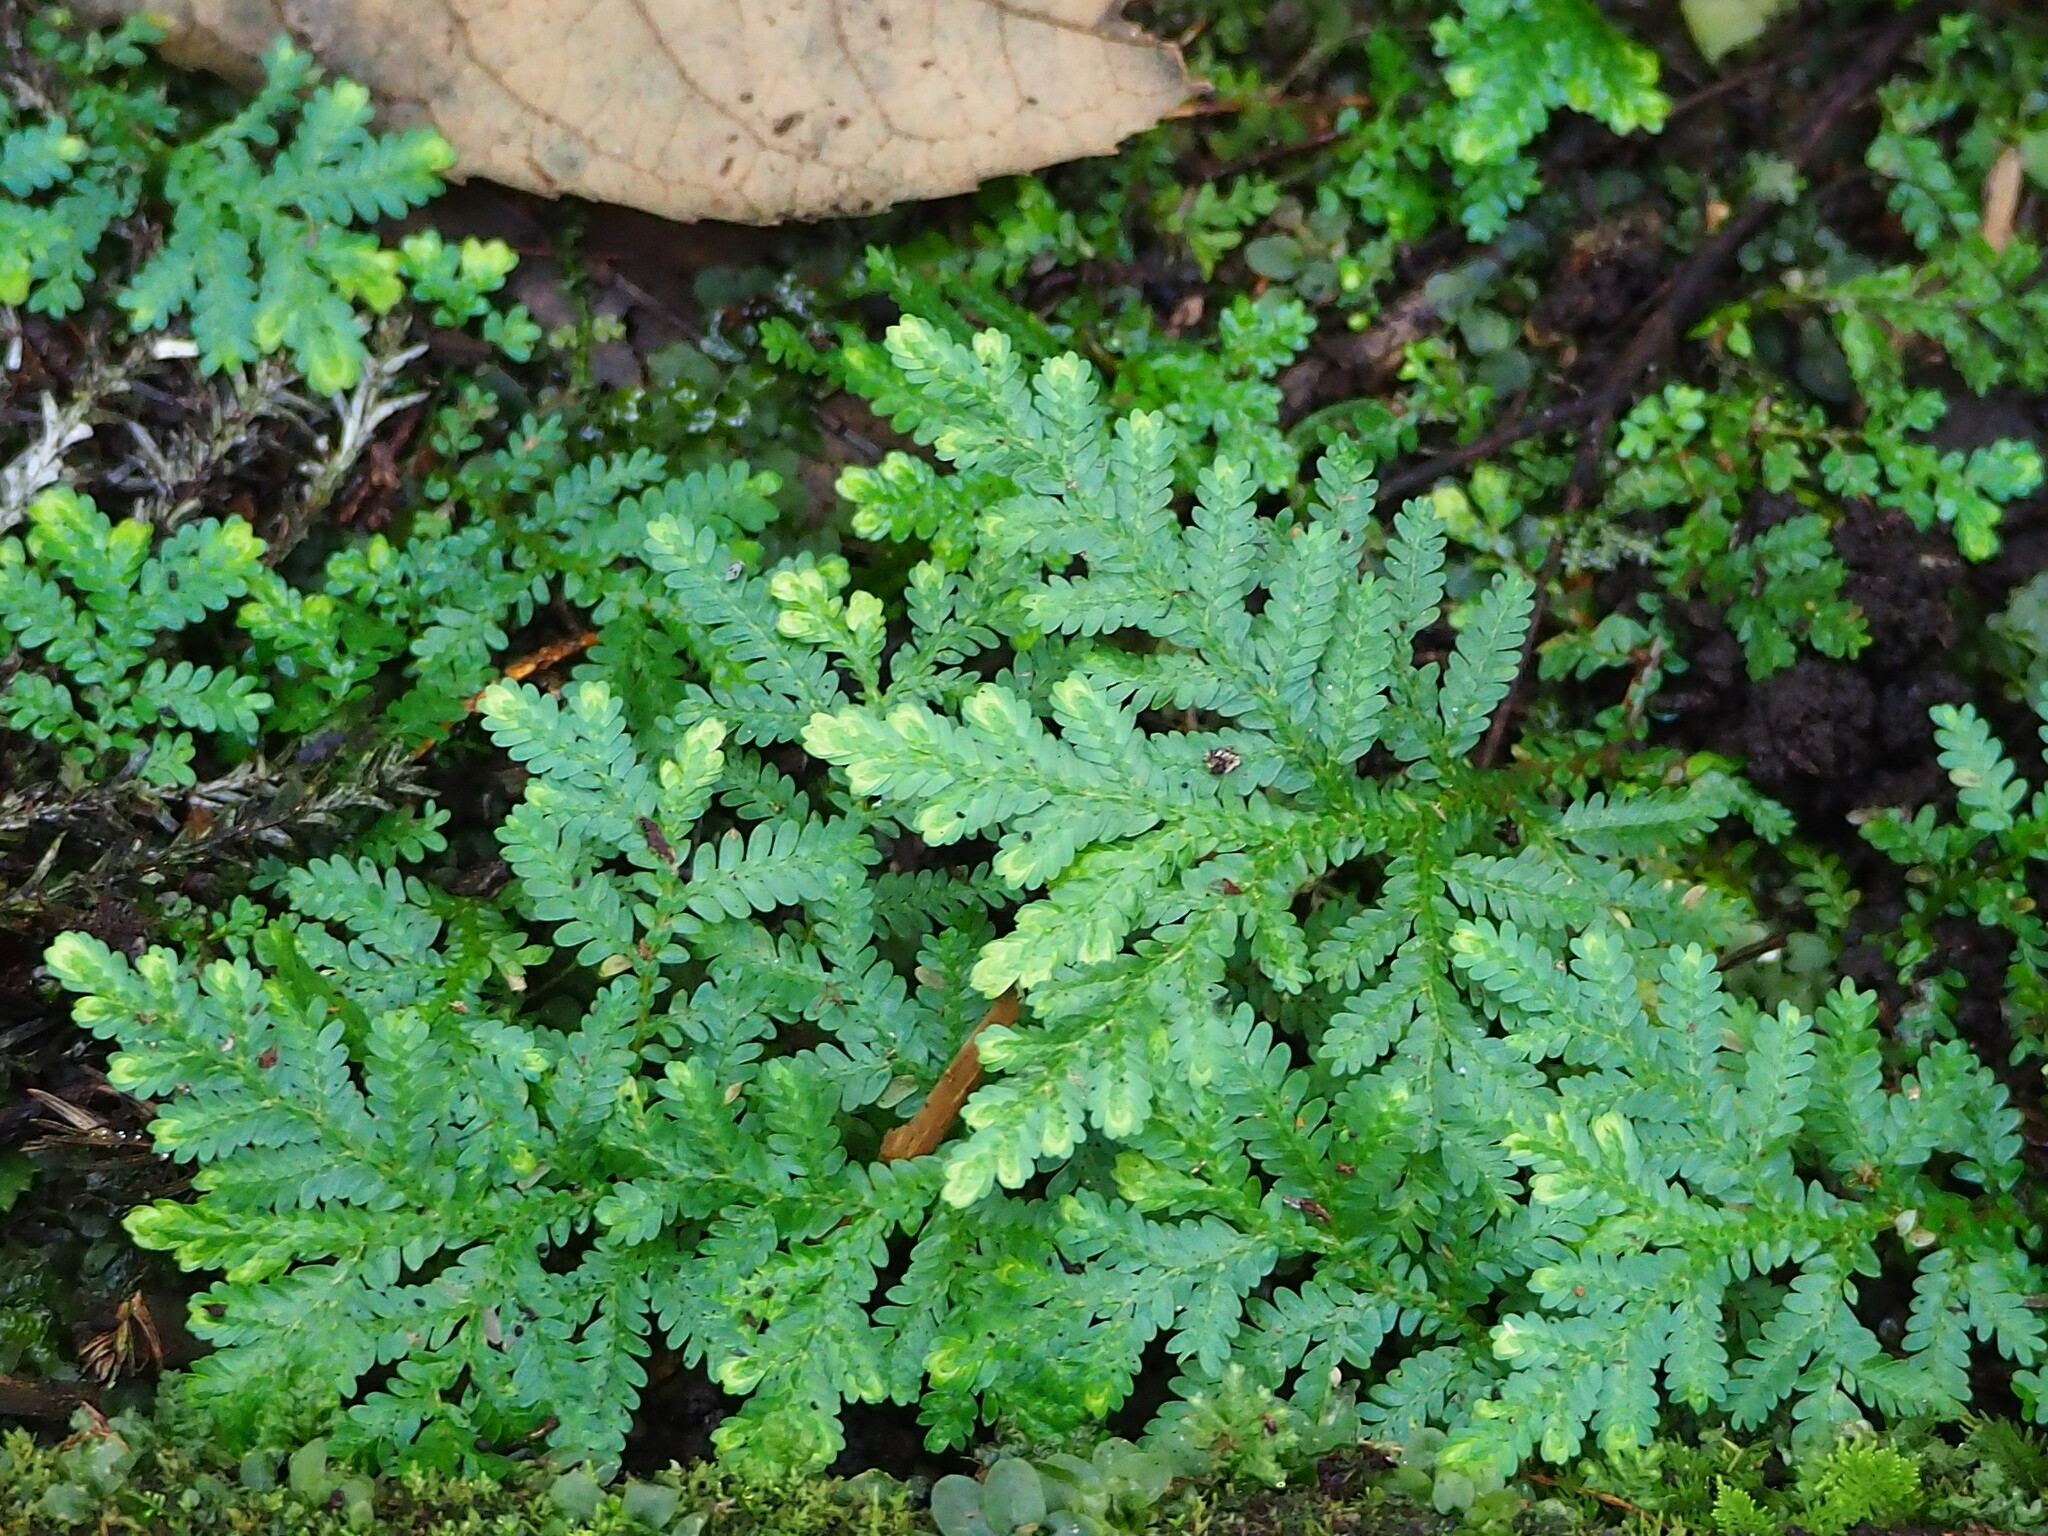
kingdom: Plantae
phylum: Tracheophyta
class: Lycopodiopsida
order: Selaginellales
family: Selaginellaceae
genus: Selaginella
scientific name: Selaginella delicatula
